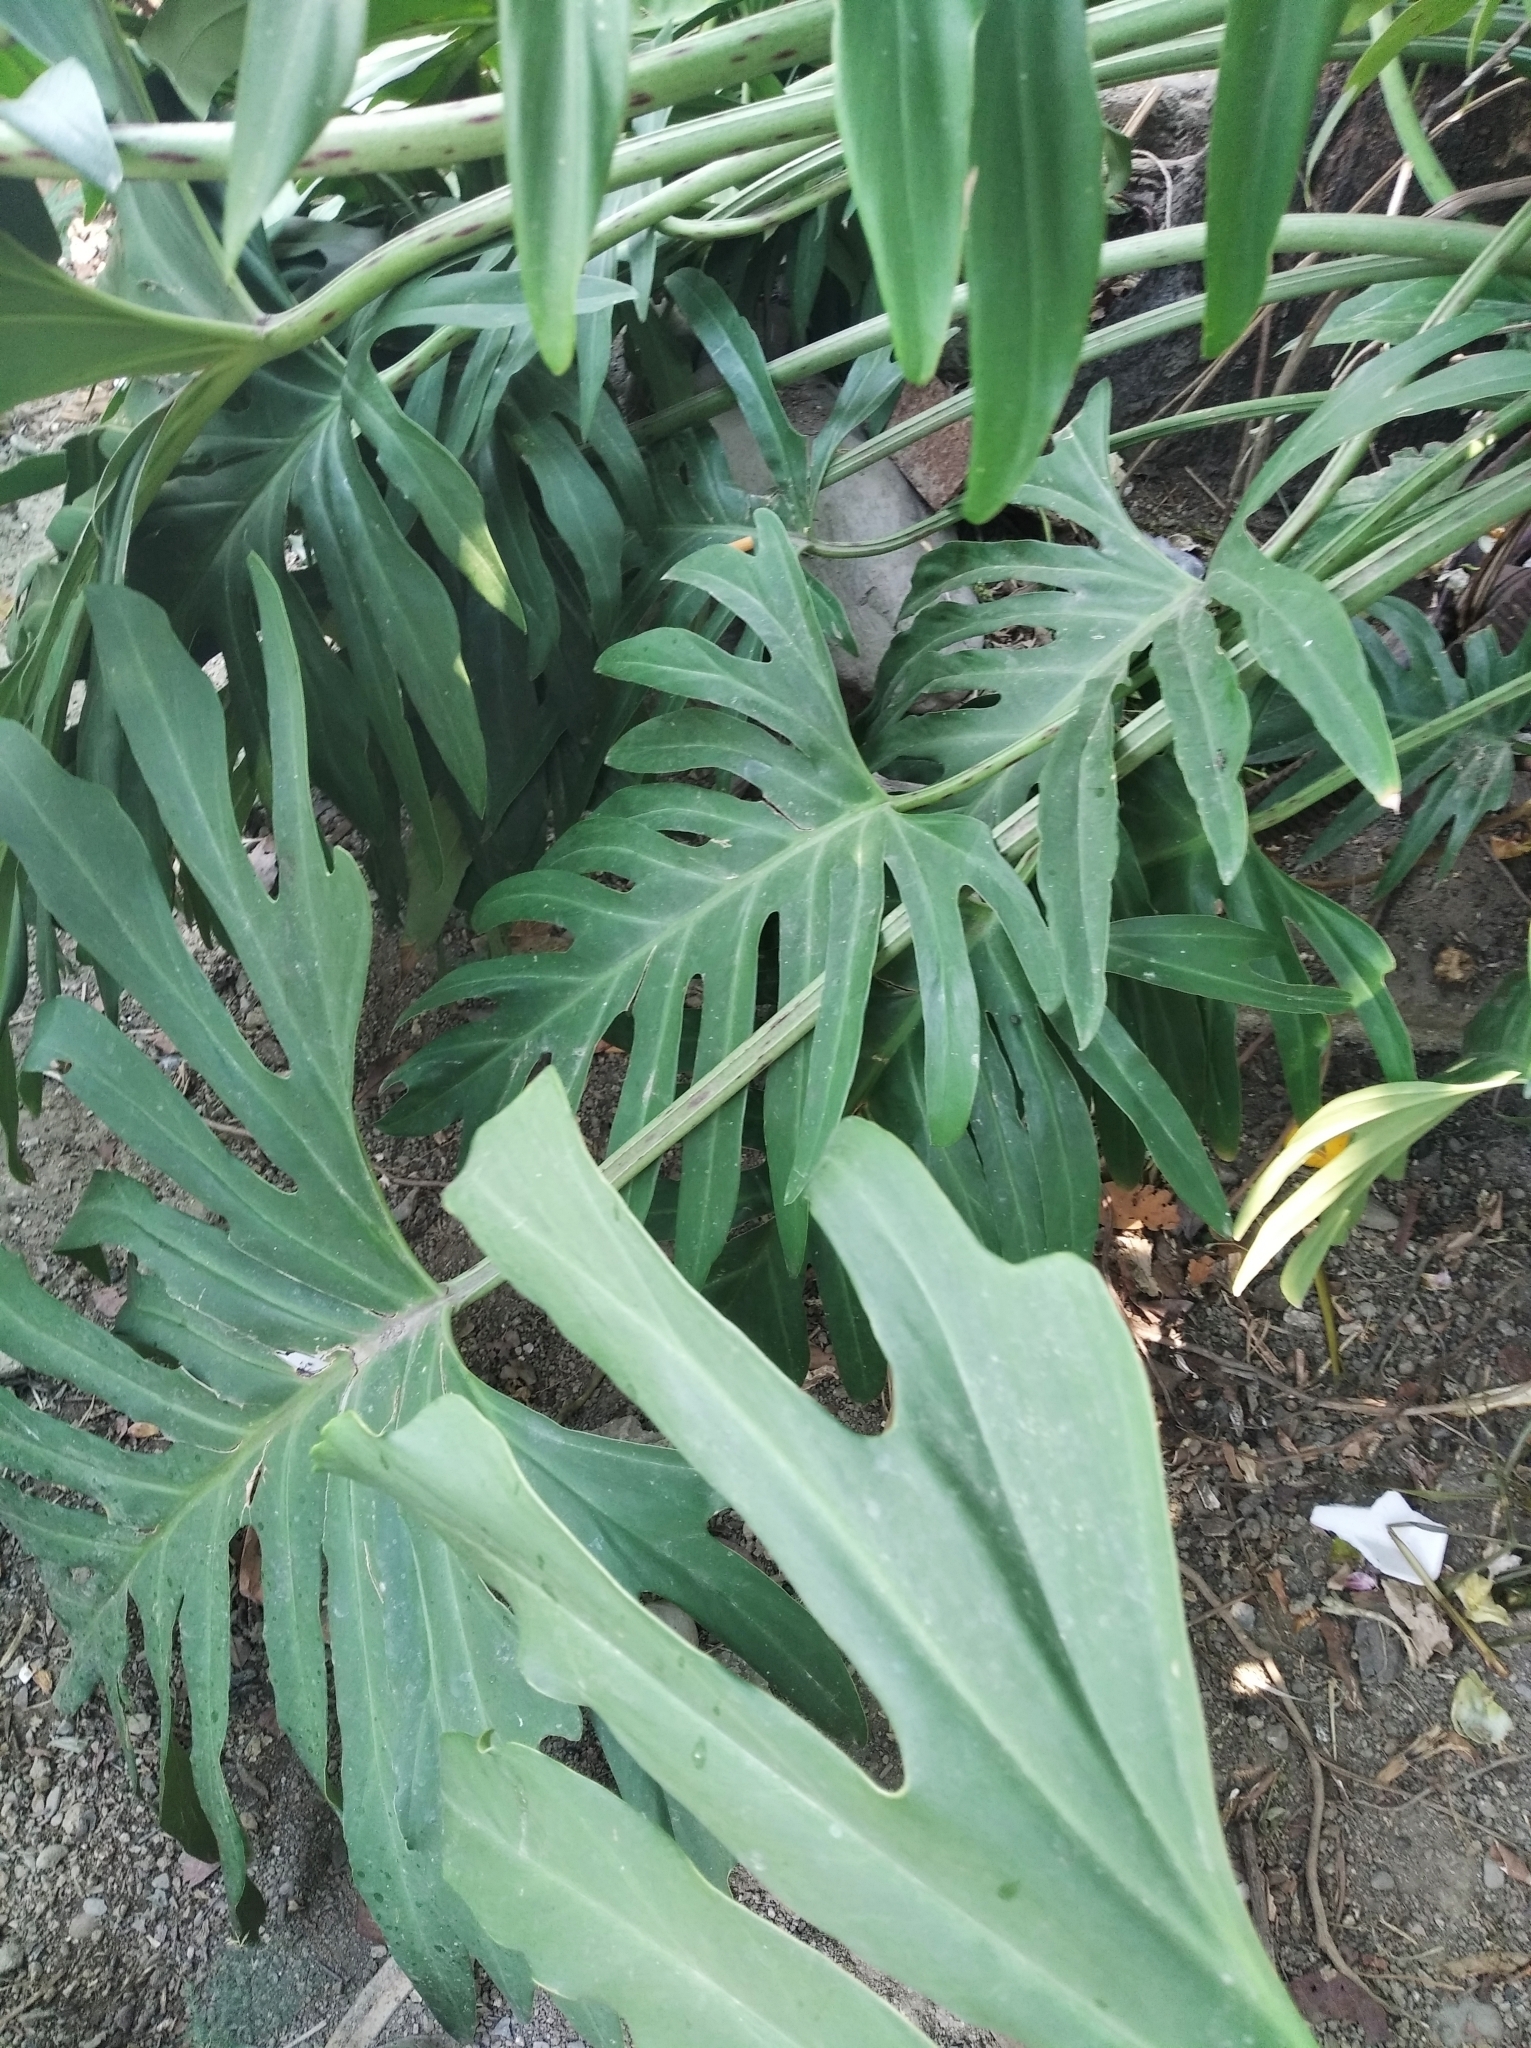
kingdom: Plantae
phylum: Tracheophyta
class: Liliopsida
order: Alismatales
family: Araceae
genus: Philodendron
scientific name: Philodendron pinnatifidum
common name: Comb-leaf philodendron
